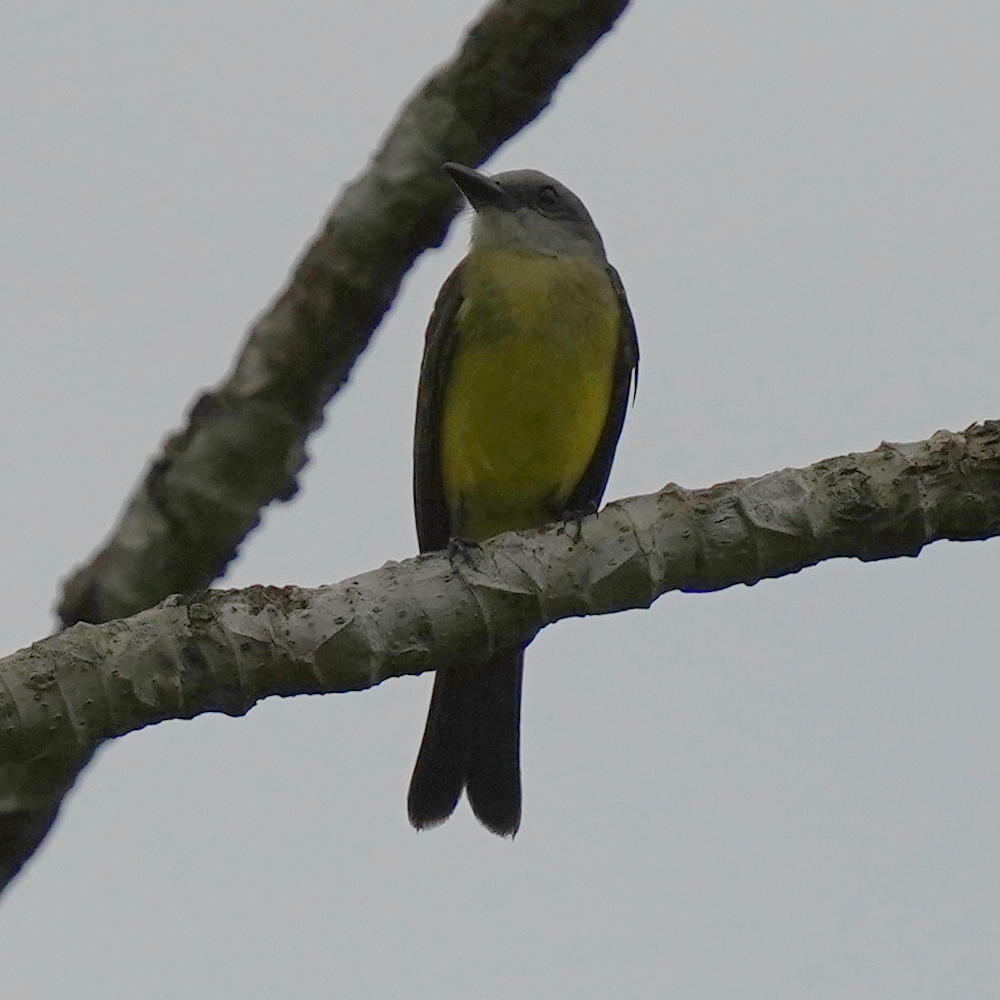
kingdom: Animalia
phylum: Chordata
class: Aves
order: Passeriformes
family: Tyrannidae
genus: Tyrannus
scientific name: Tyrannus melancholicus
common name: Tropical kingbird
